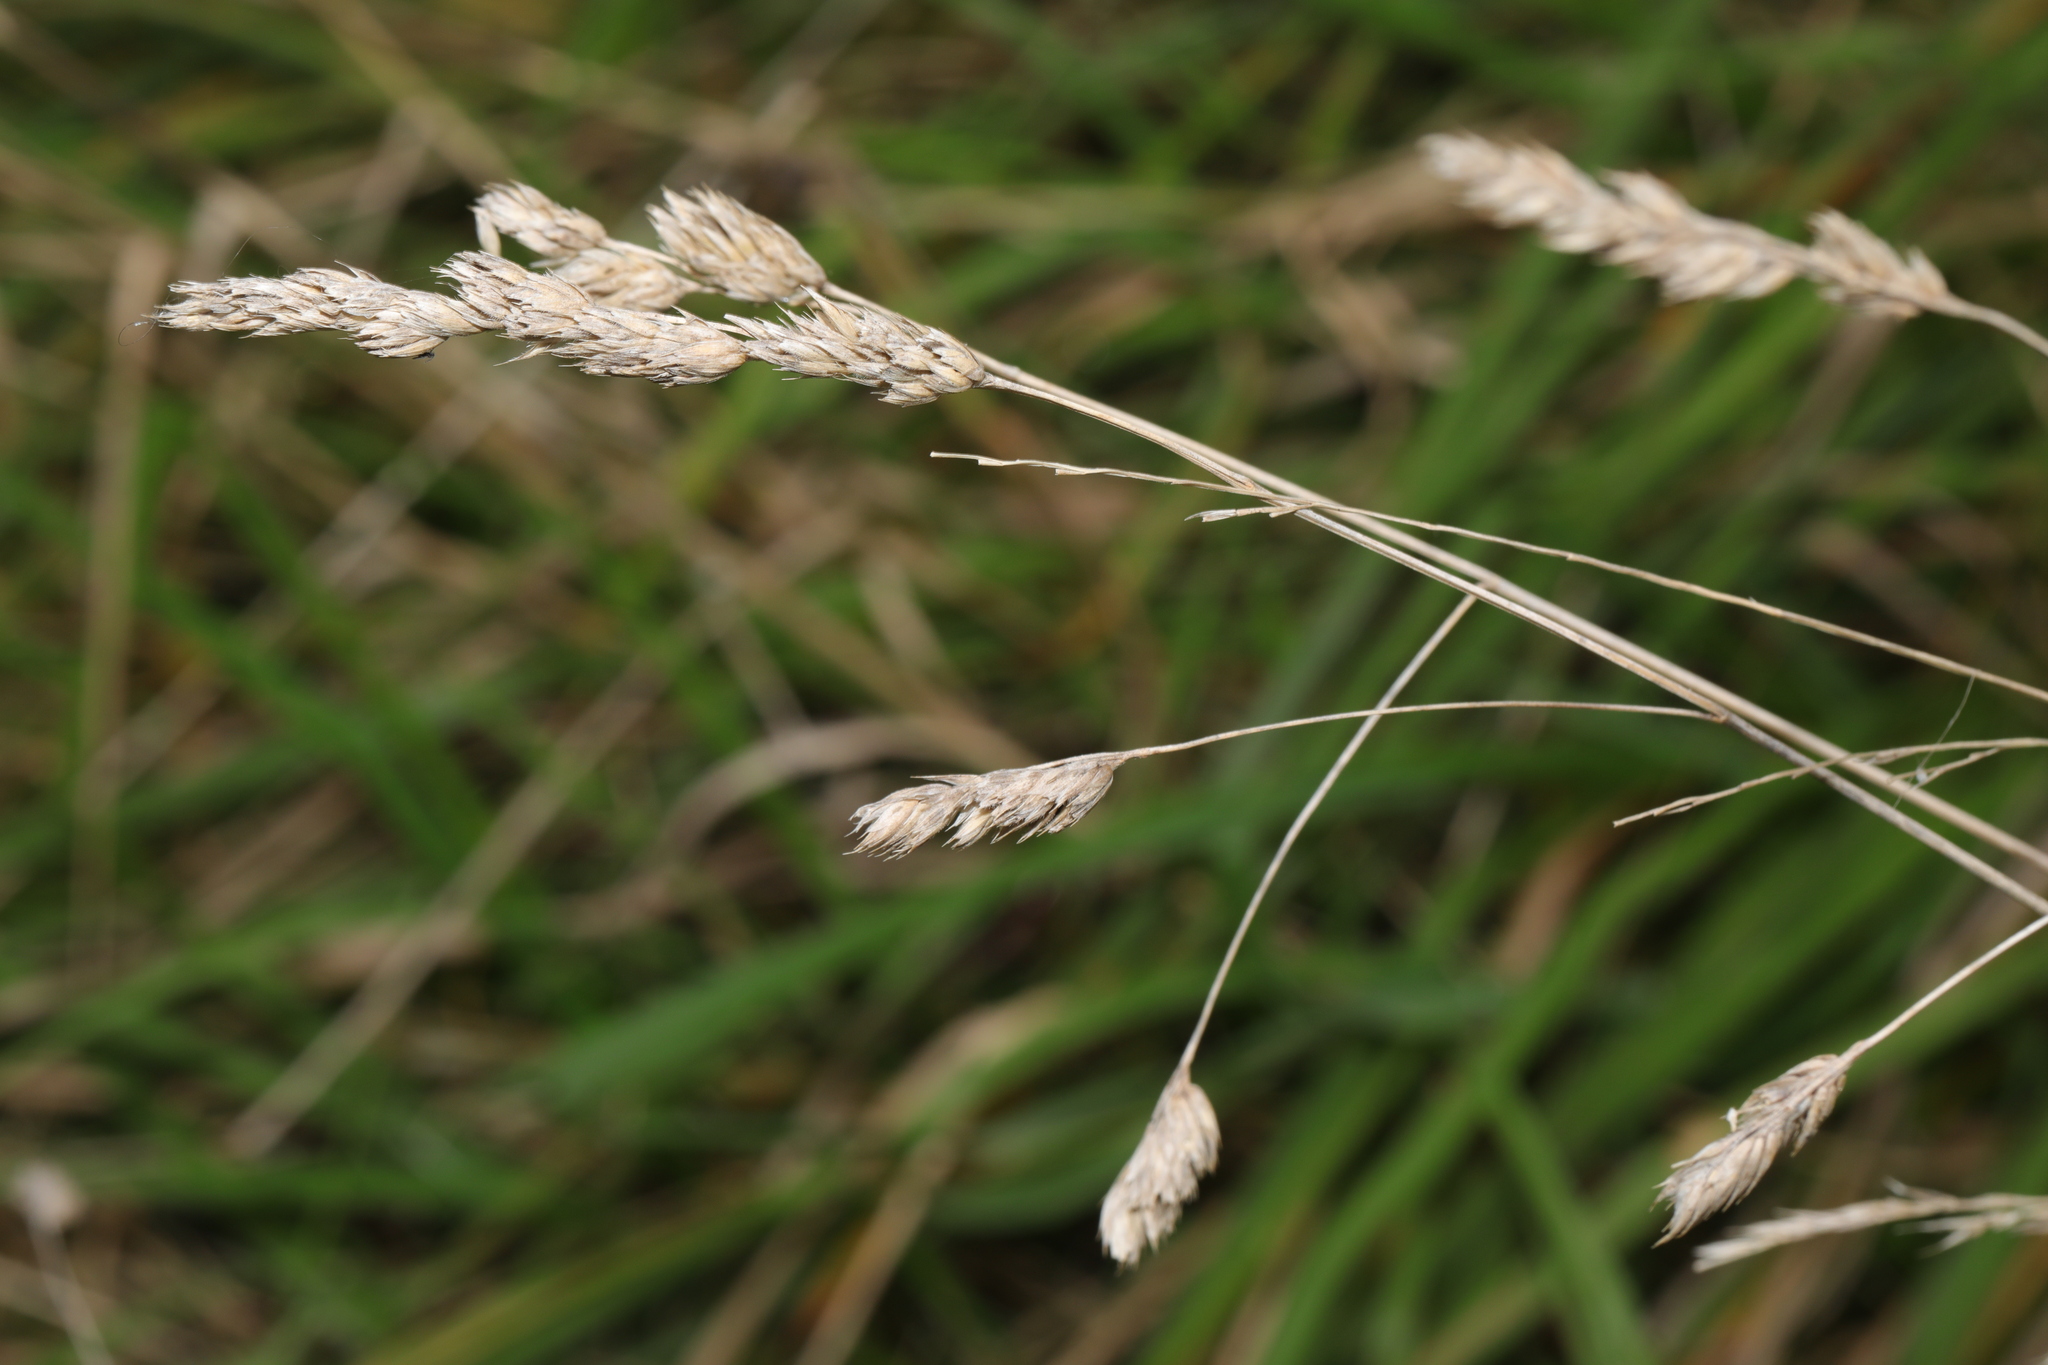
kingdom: Plantae
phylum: Tracheophyta
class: Liliopsida
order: Poales
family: Poaceae
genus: Dactylis
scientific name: Dactylis glomerata
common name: Orchardgrass
